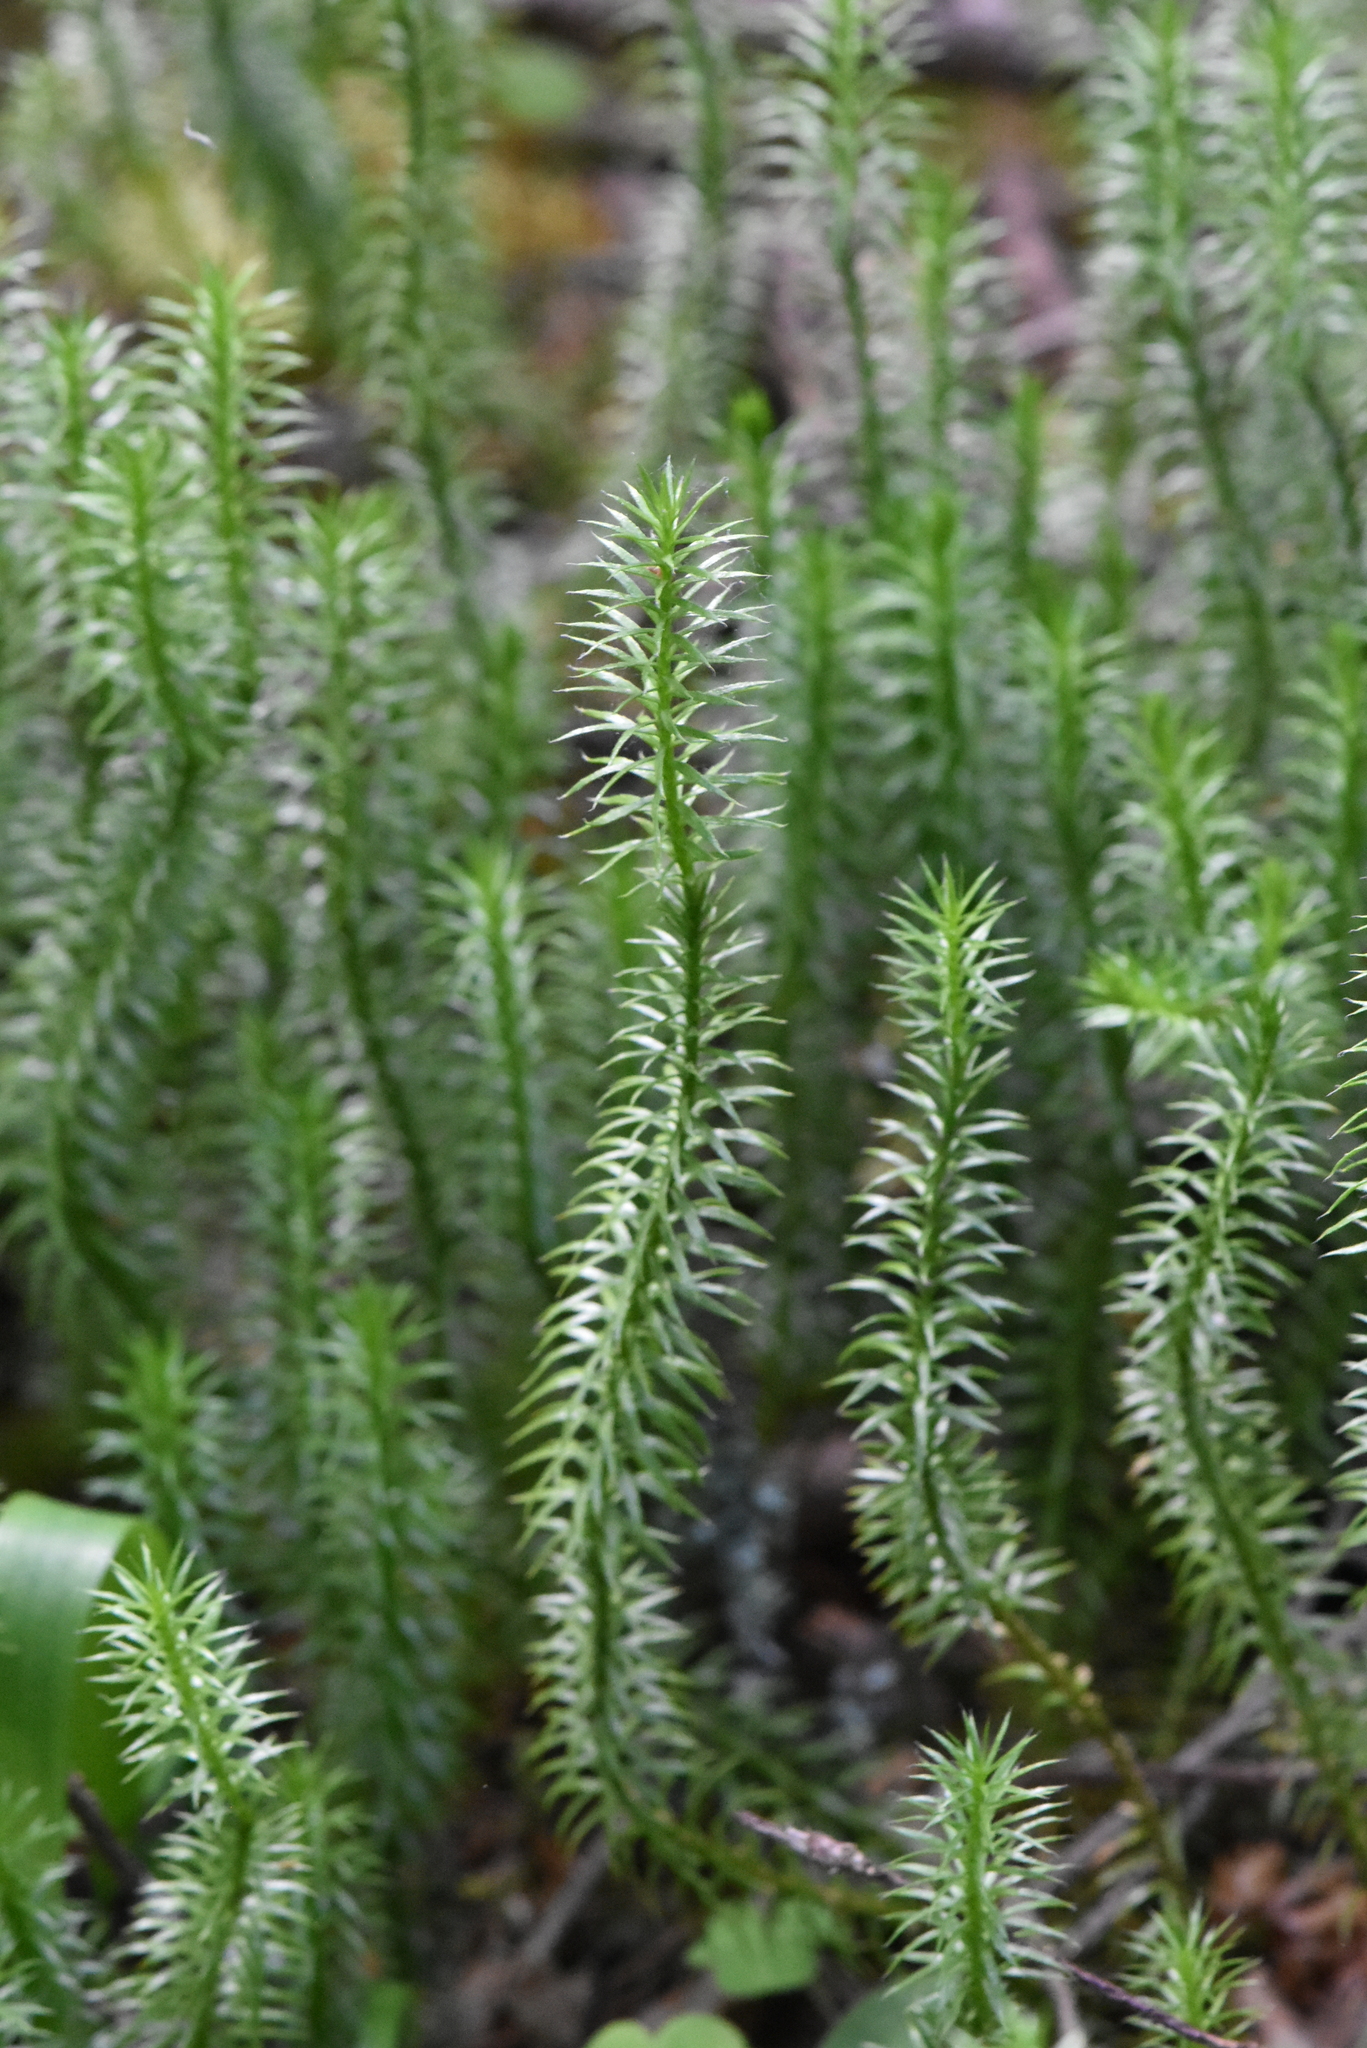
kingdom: Plantae
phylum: Tracheophyta
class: Lycopodiopsida
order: Lycopodiales
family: Lycopodiaceae
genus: Spinulum
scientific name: Spinulum annotinum
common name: Interrupted club-moss
